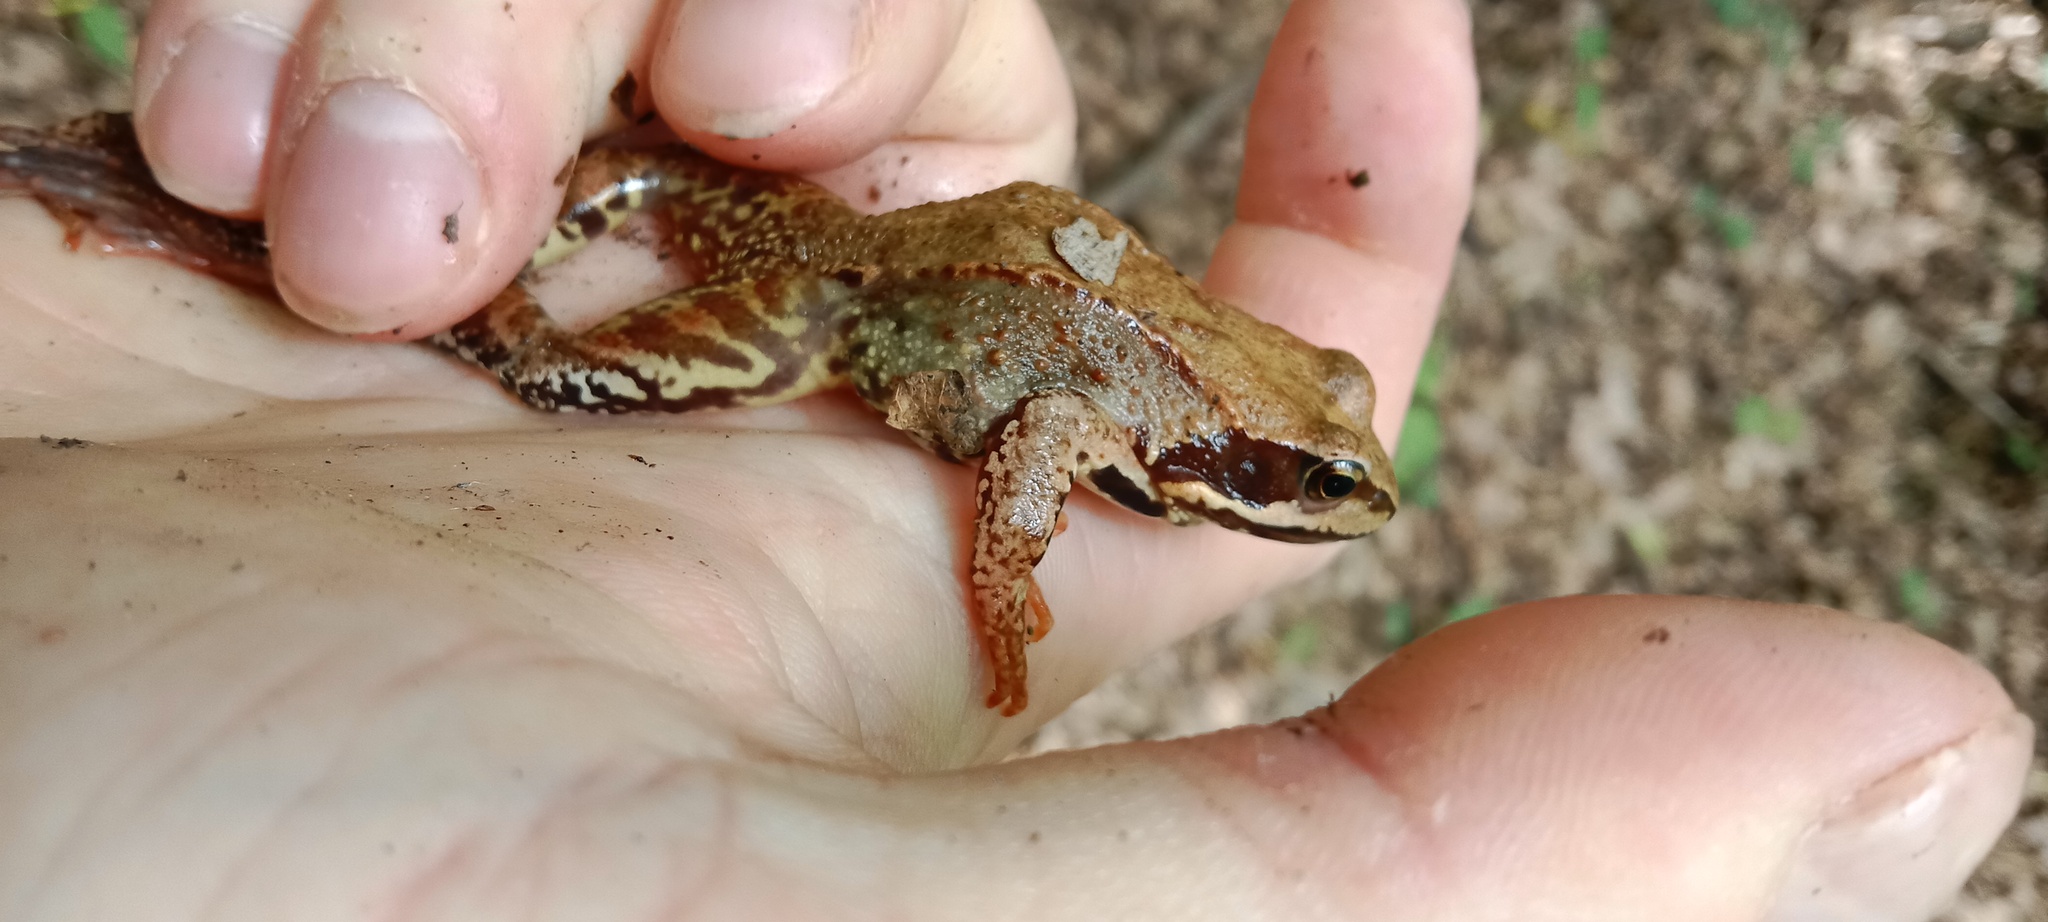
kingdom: Animalia
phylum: Chordata
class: Amphibia
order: Anura
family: Ranidae
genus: Rana
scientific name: Rana temporaria
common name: Common frog
